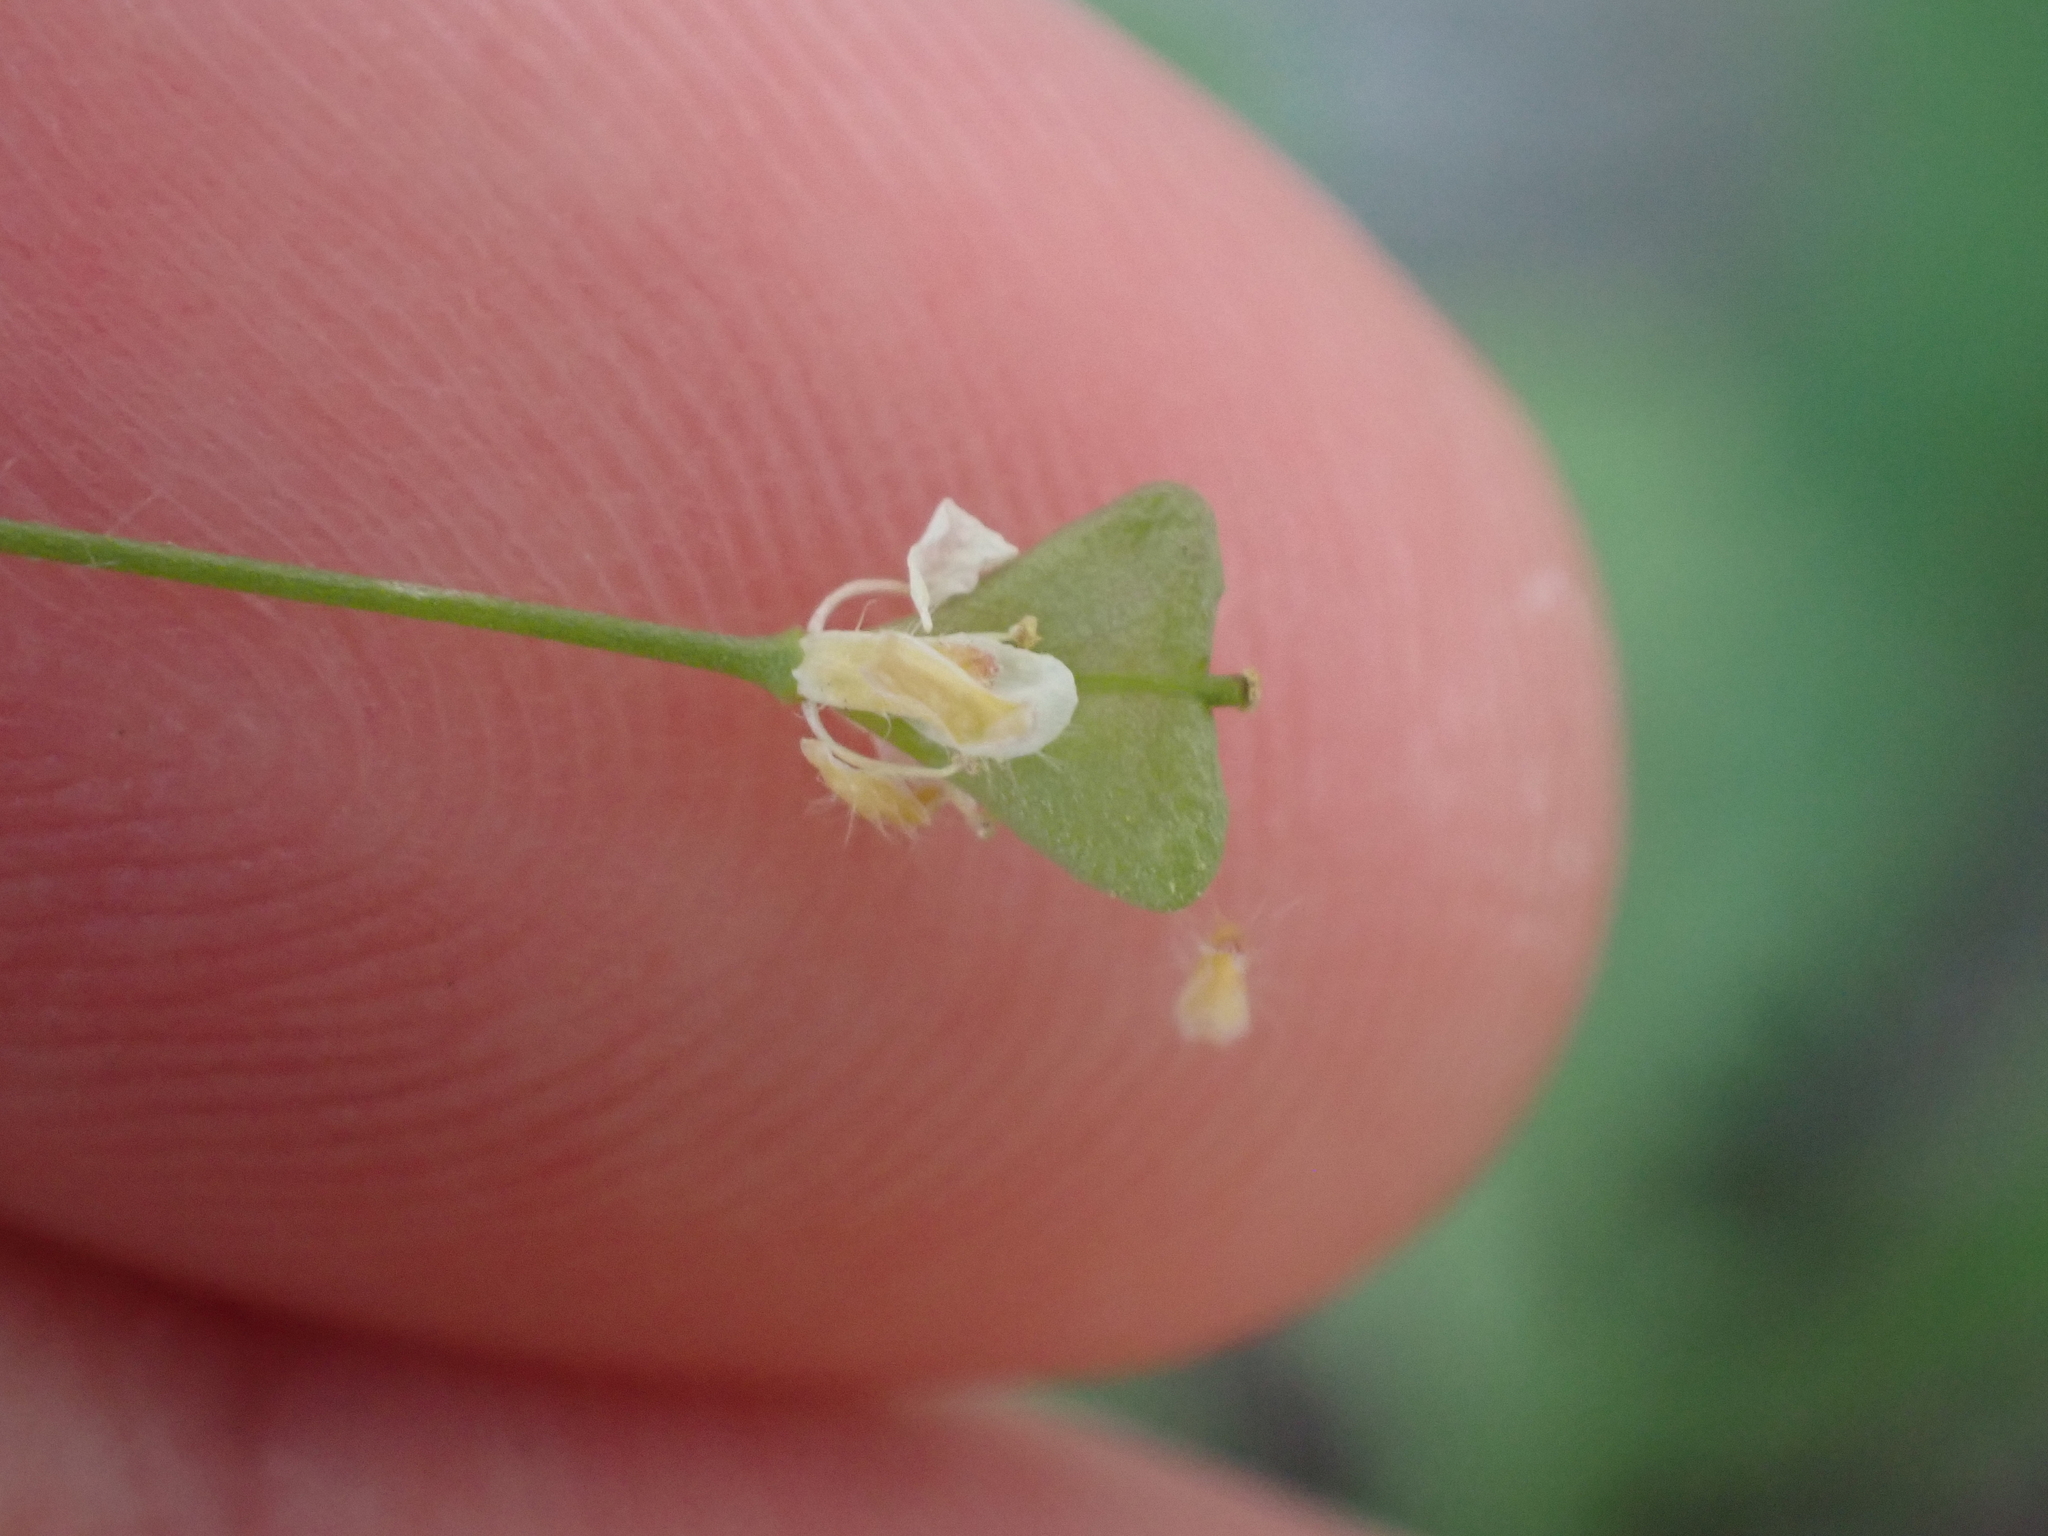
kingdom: Plantae
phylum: Tracheophyta
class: Magnoliopsida
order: Brassicales
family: Brassicaceae
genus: Capsella
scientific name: Capsella bursa-pastoris
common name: Shepherd's purse
